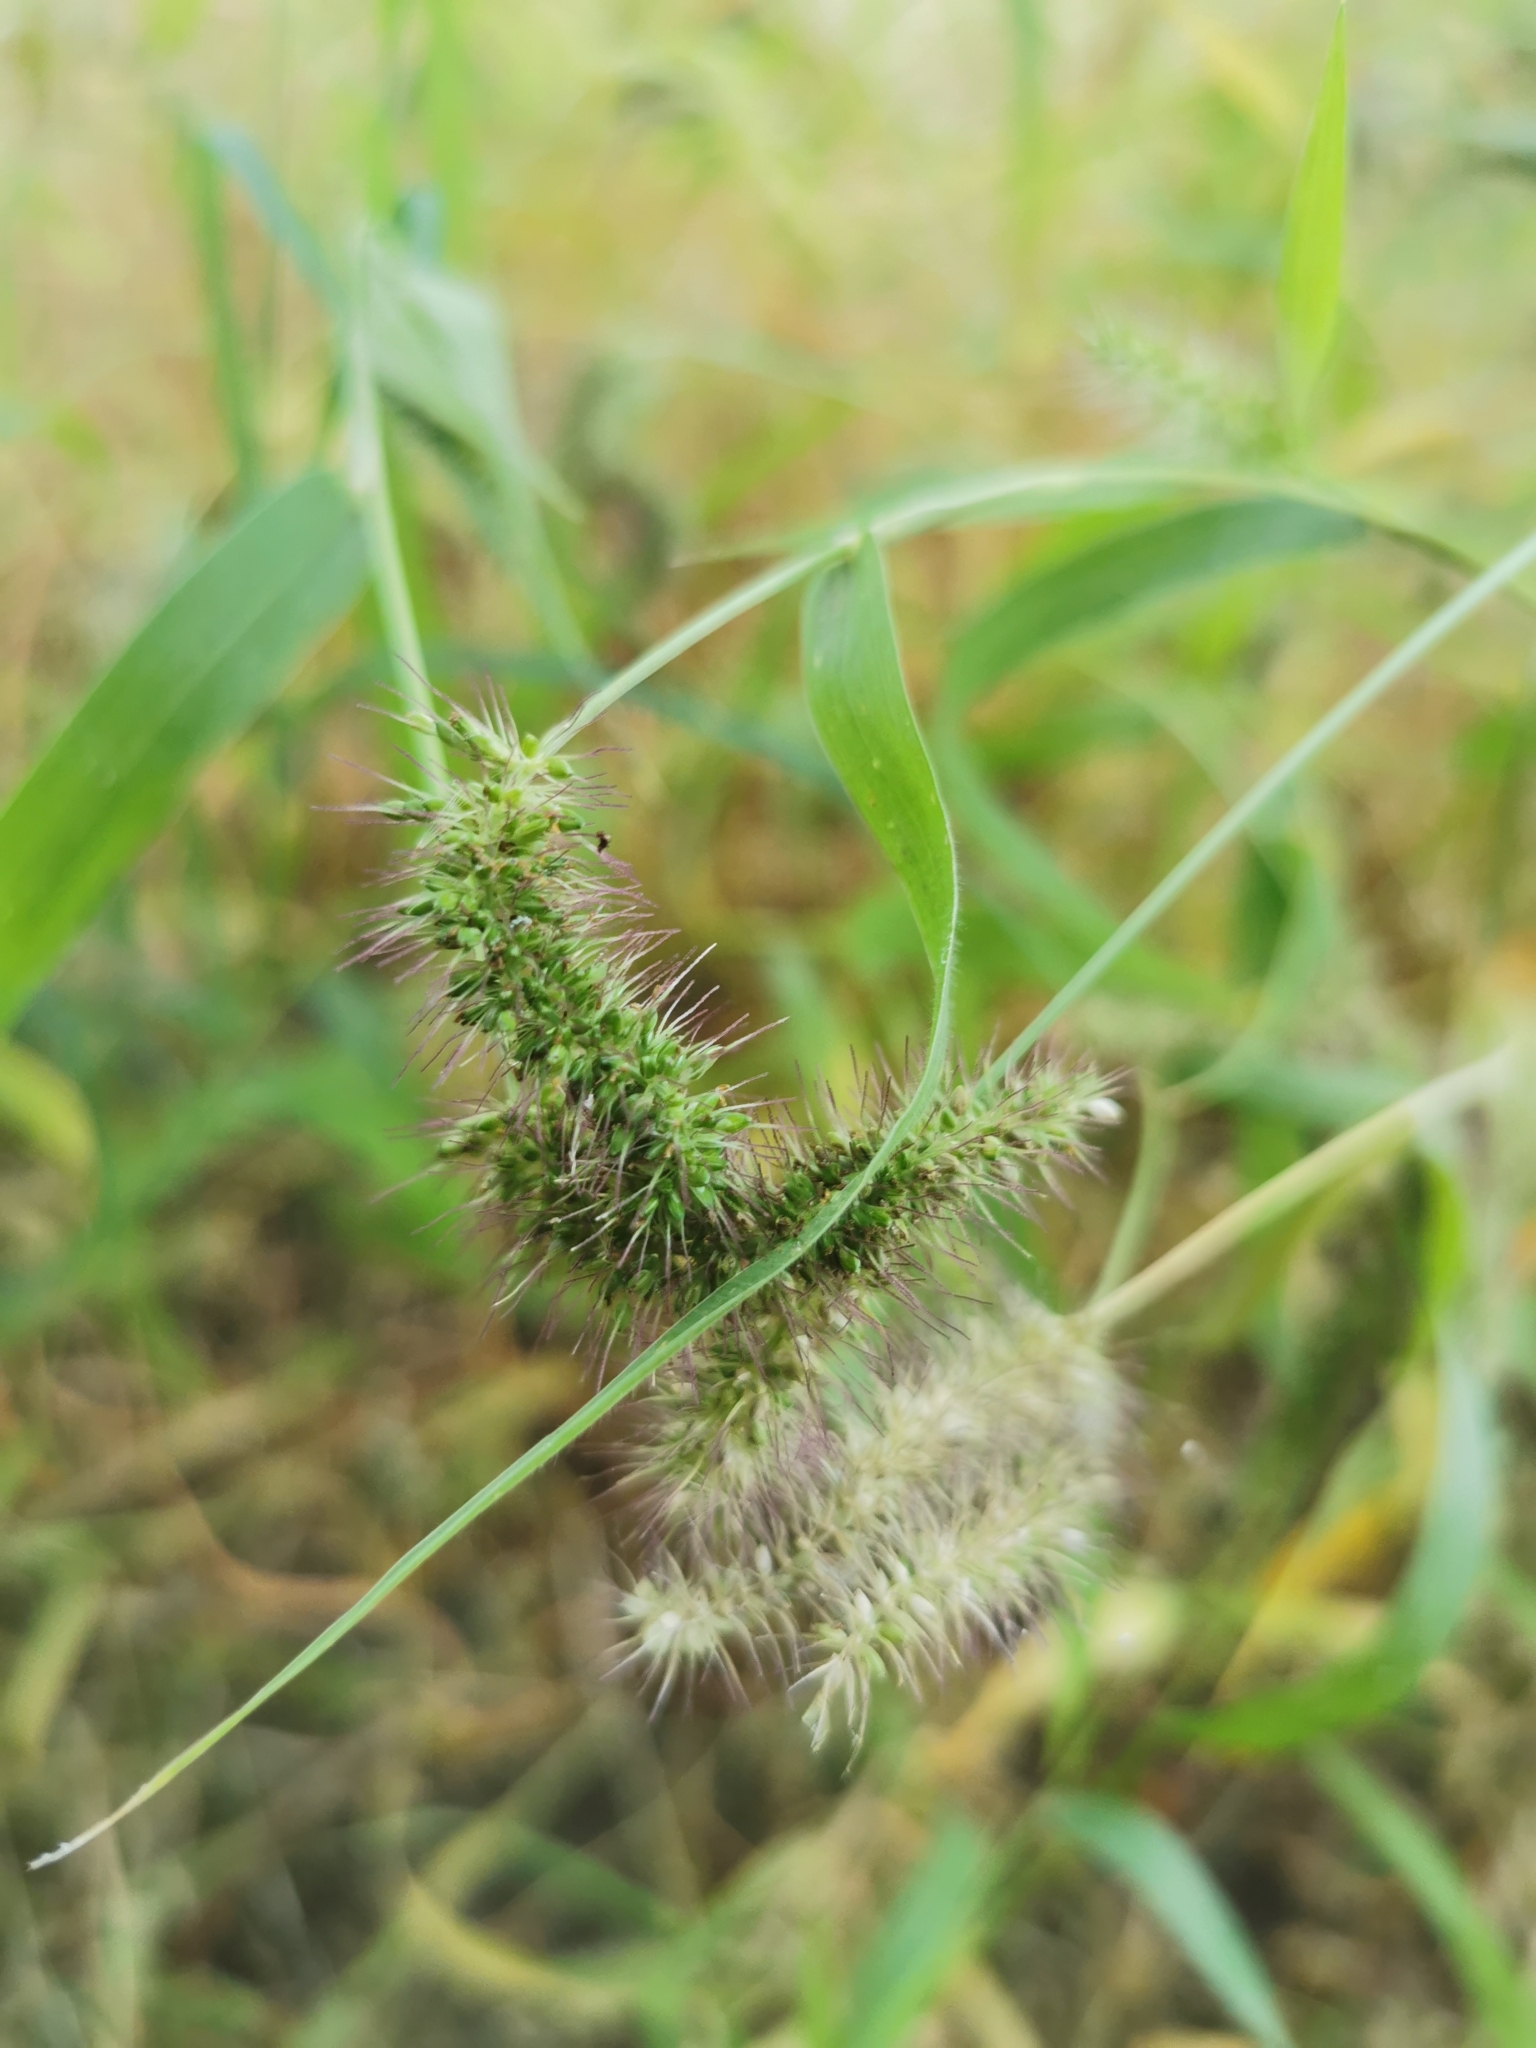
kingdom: Plantae
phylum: Tracheophyta
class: Liliopsida
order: Poales
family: Poaceae
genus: Setaria
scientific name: Setaria adhaerens
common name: Adherent bristle-grass
